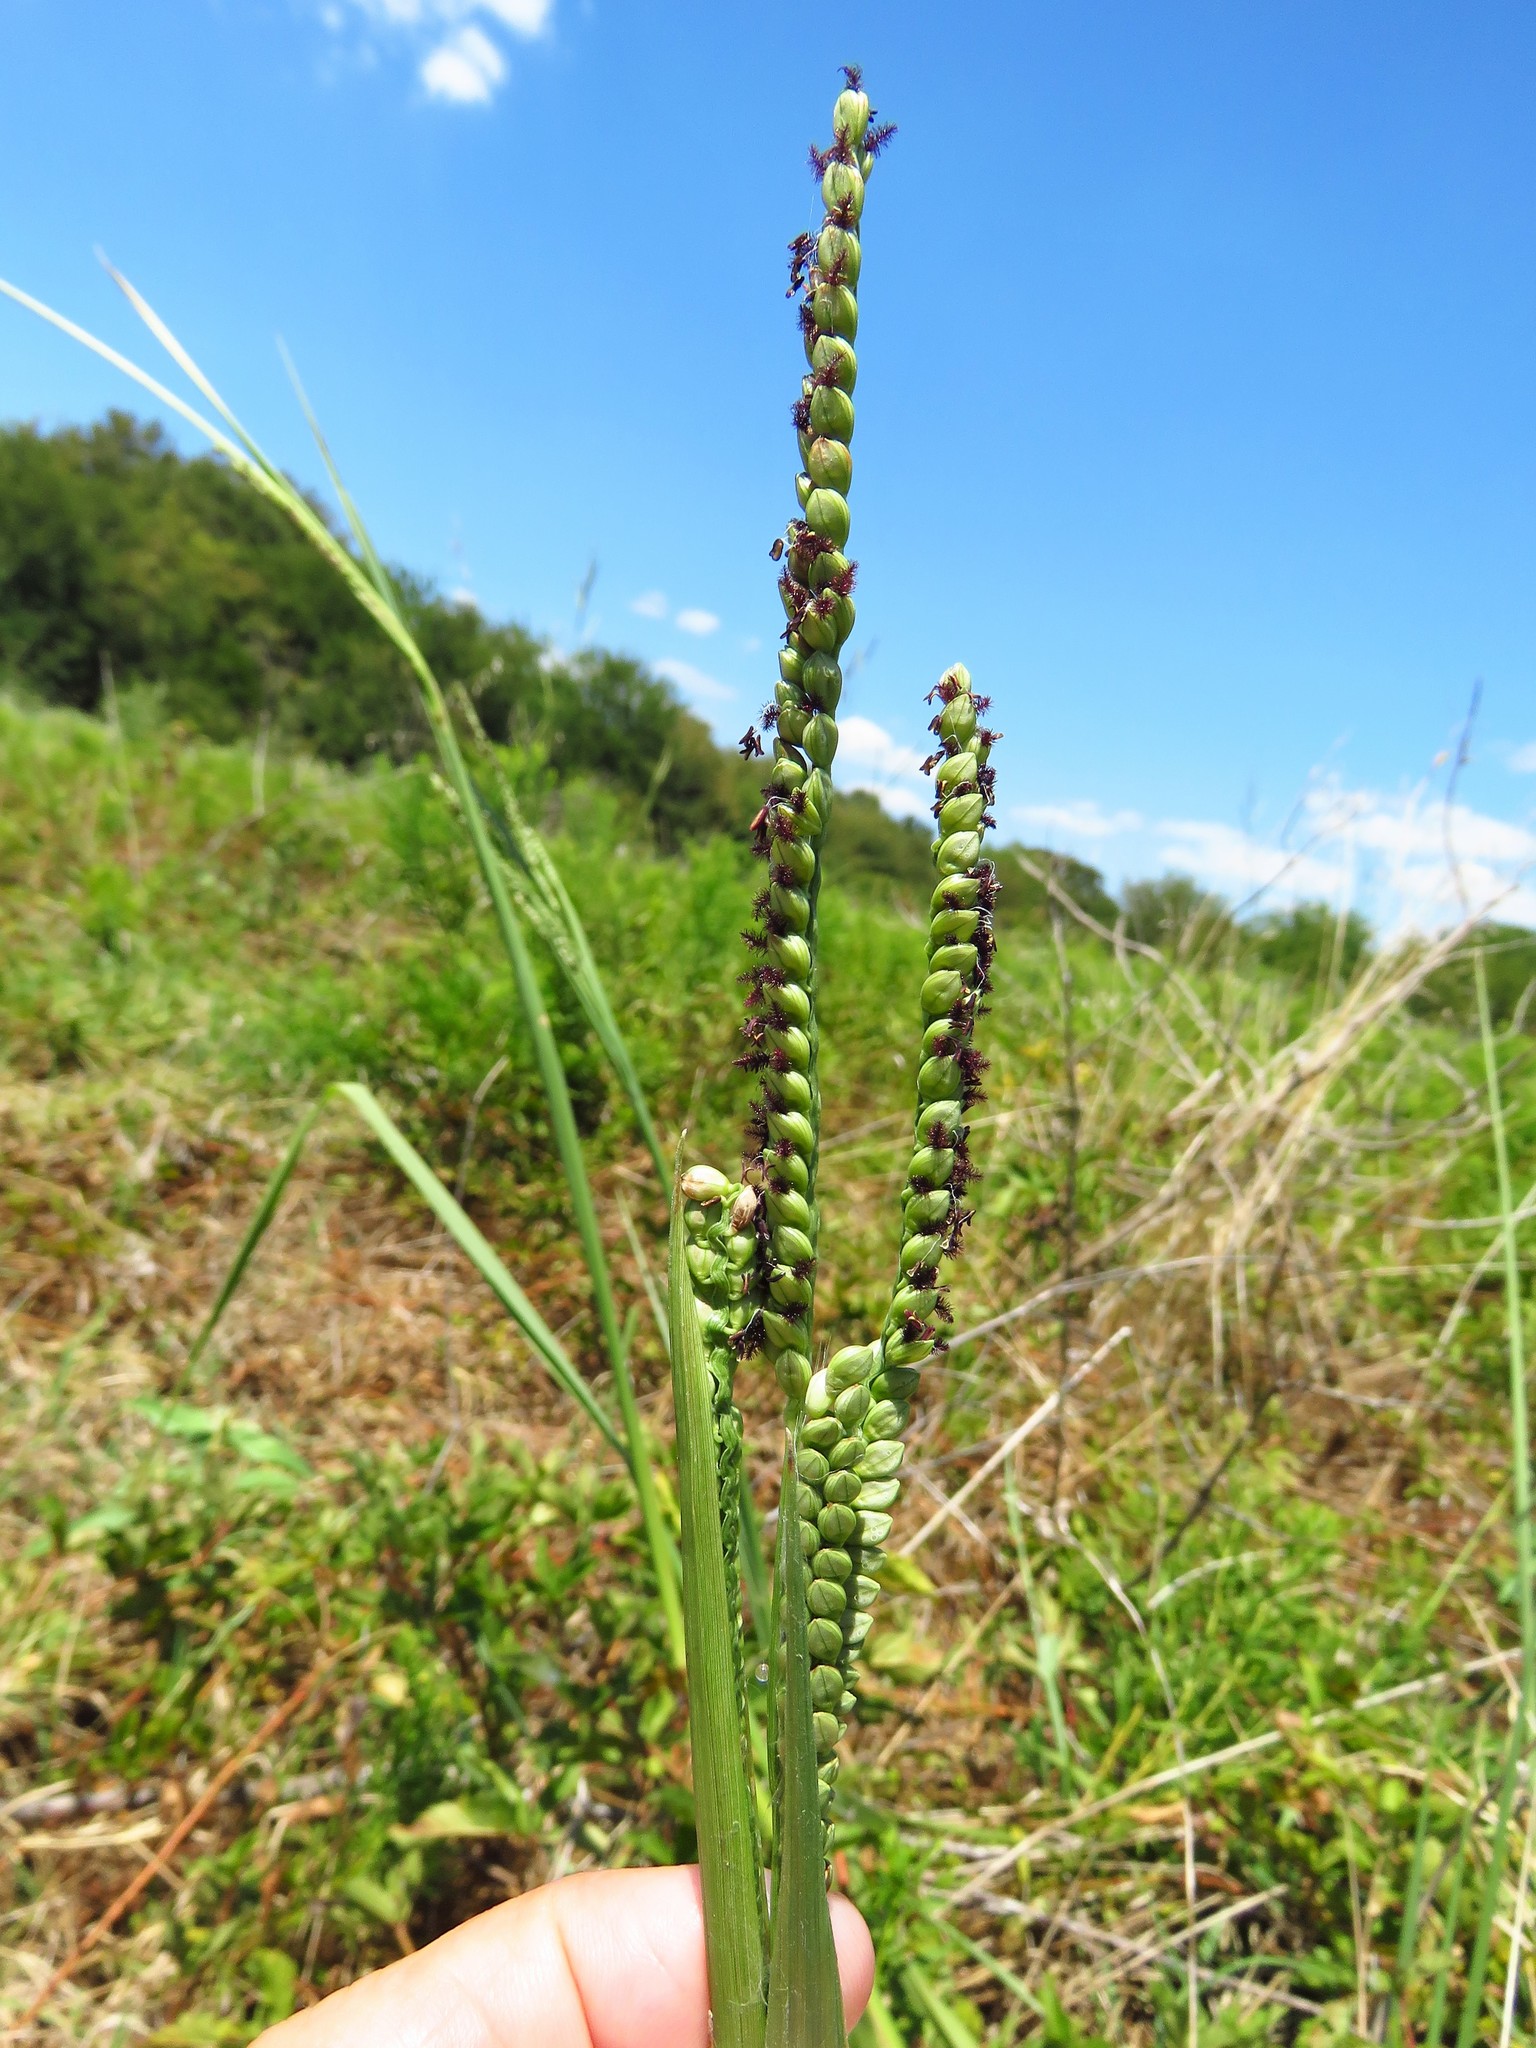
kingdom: Plantae
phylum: Tracheophyta
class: Liliopsida
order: Poales
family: Poaceae
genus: Paspalum
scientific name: Paspalum floridanum
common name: Florida paspalum
